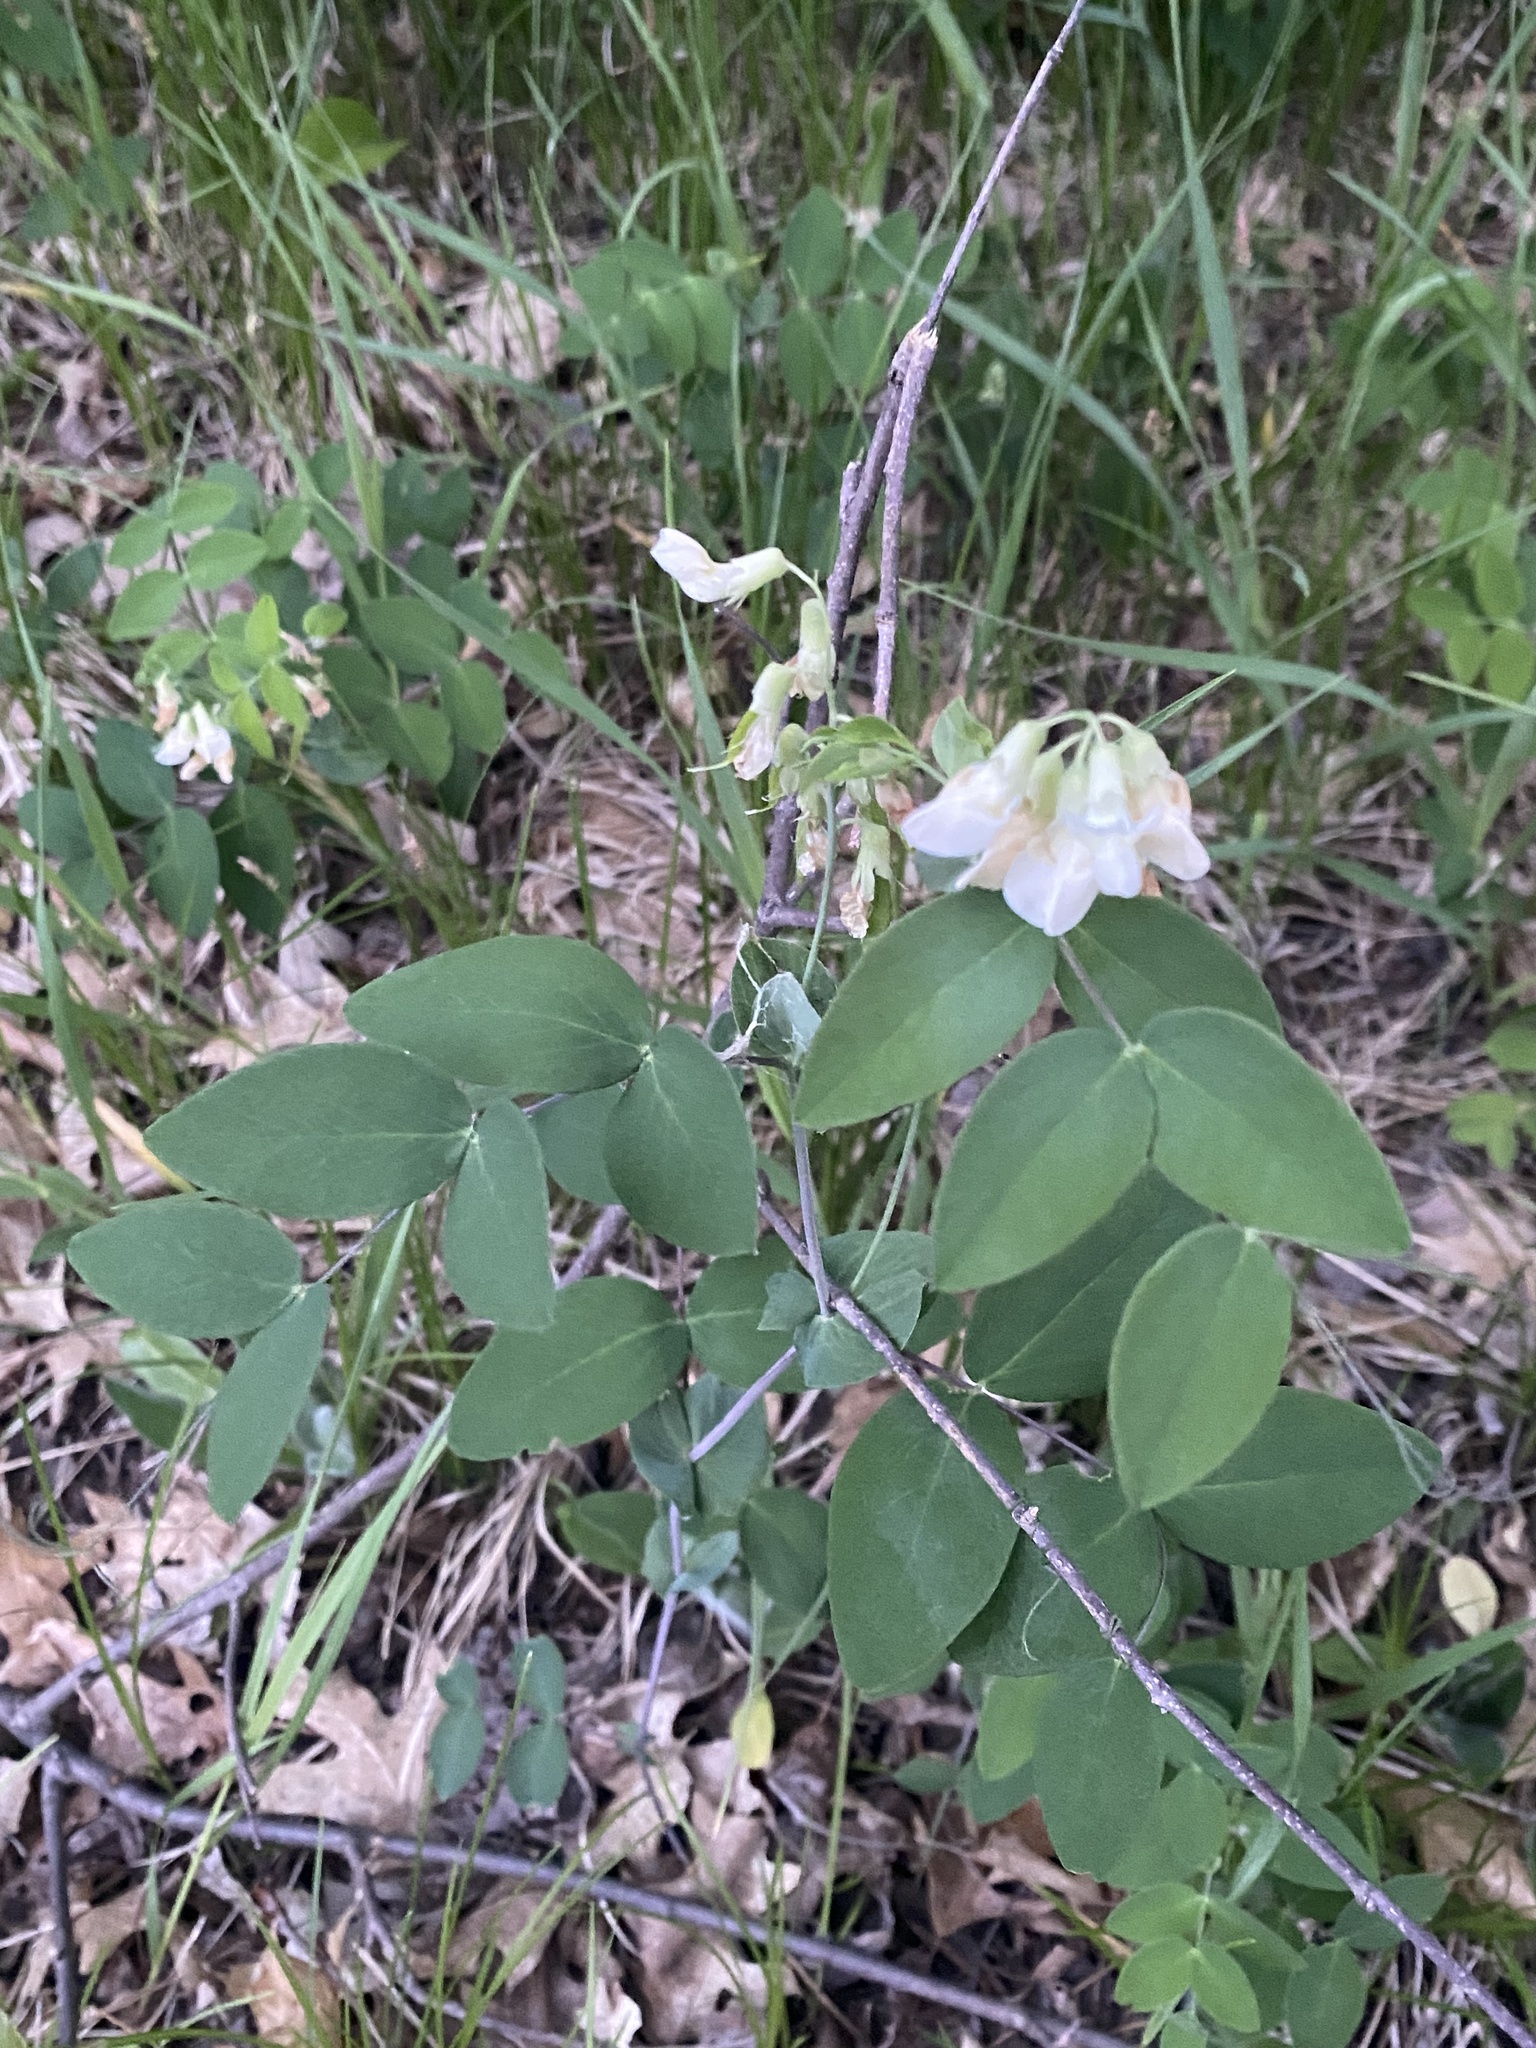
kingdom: Plantae
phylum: Tracheophyta
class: Magnoliopsida
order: Fabales
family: Fabaceae
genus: Lathyrus
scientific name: Lathyrus ochroleucus
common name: Pale vetchling
